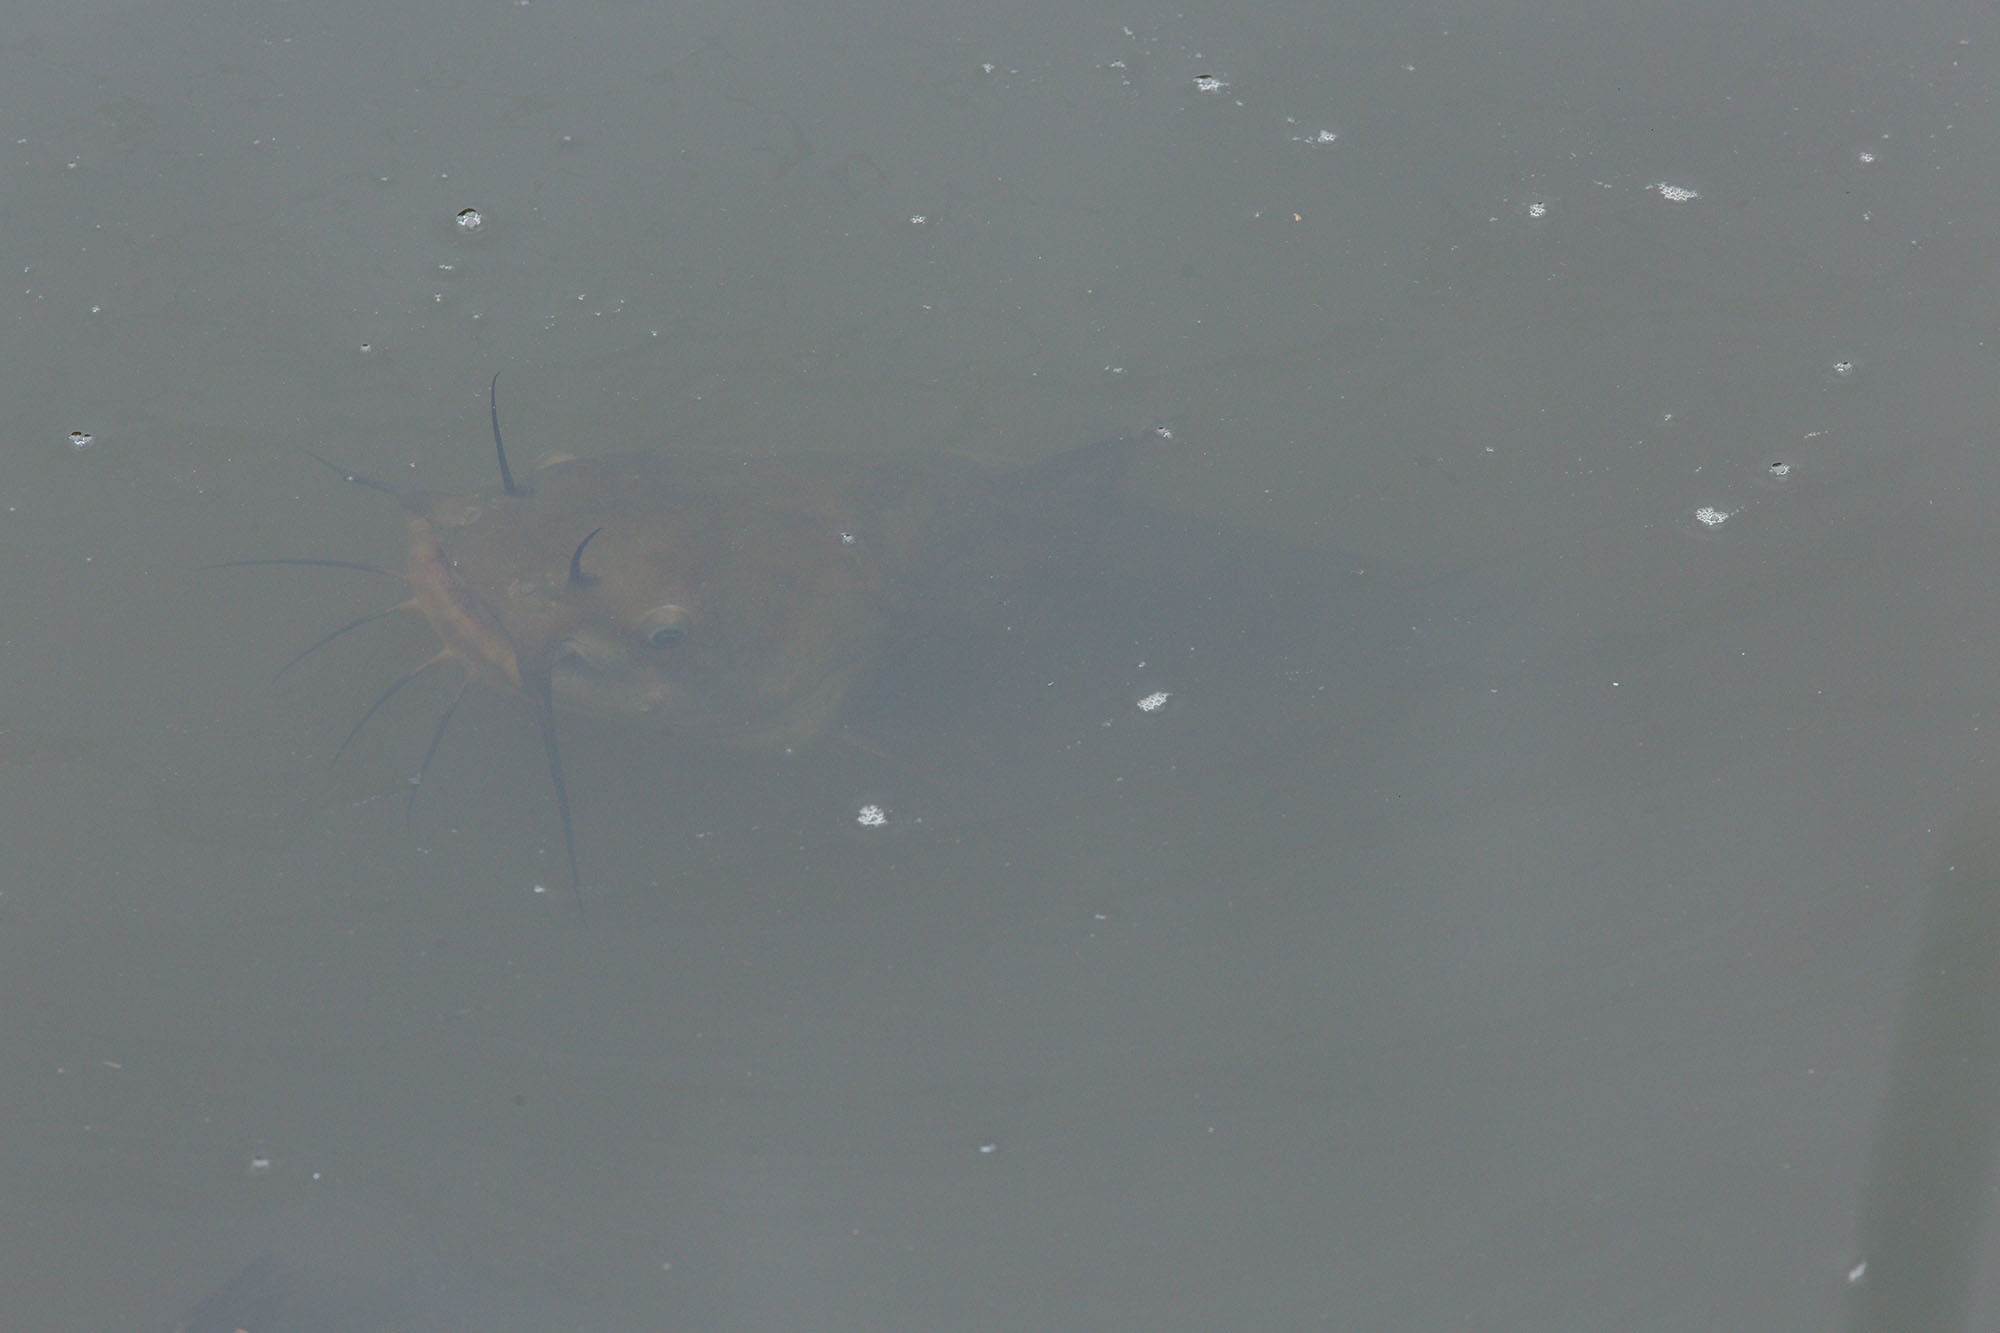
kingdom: Animalia
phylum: Chordata
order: Siluriformes
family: Ictaluridae
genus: Ameiurus
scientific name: Ameiurus nebulosus
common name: Brown bullhead
